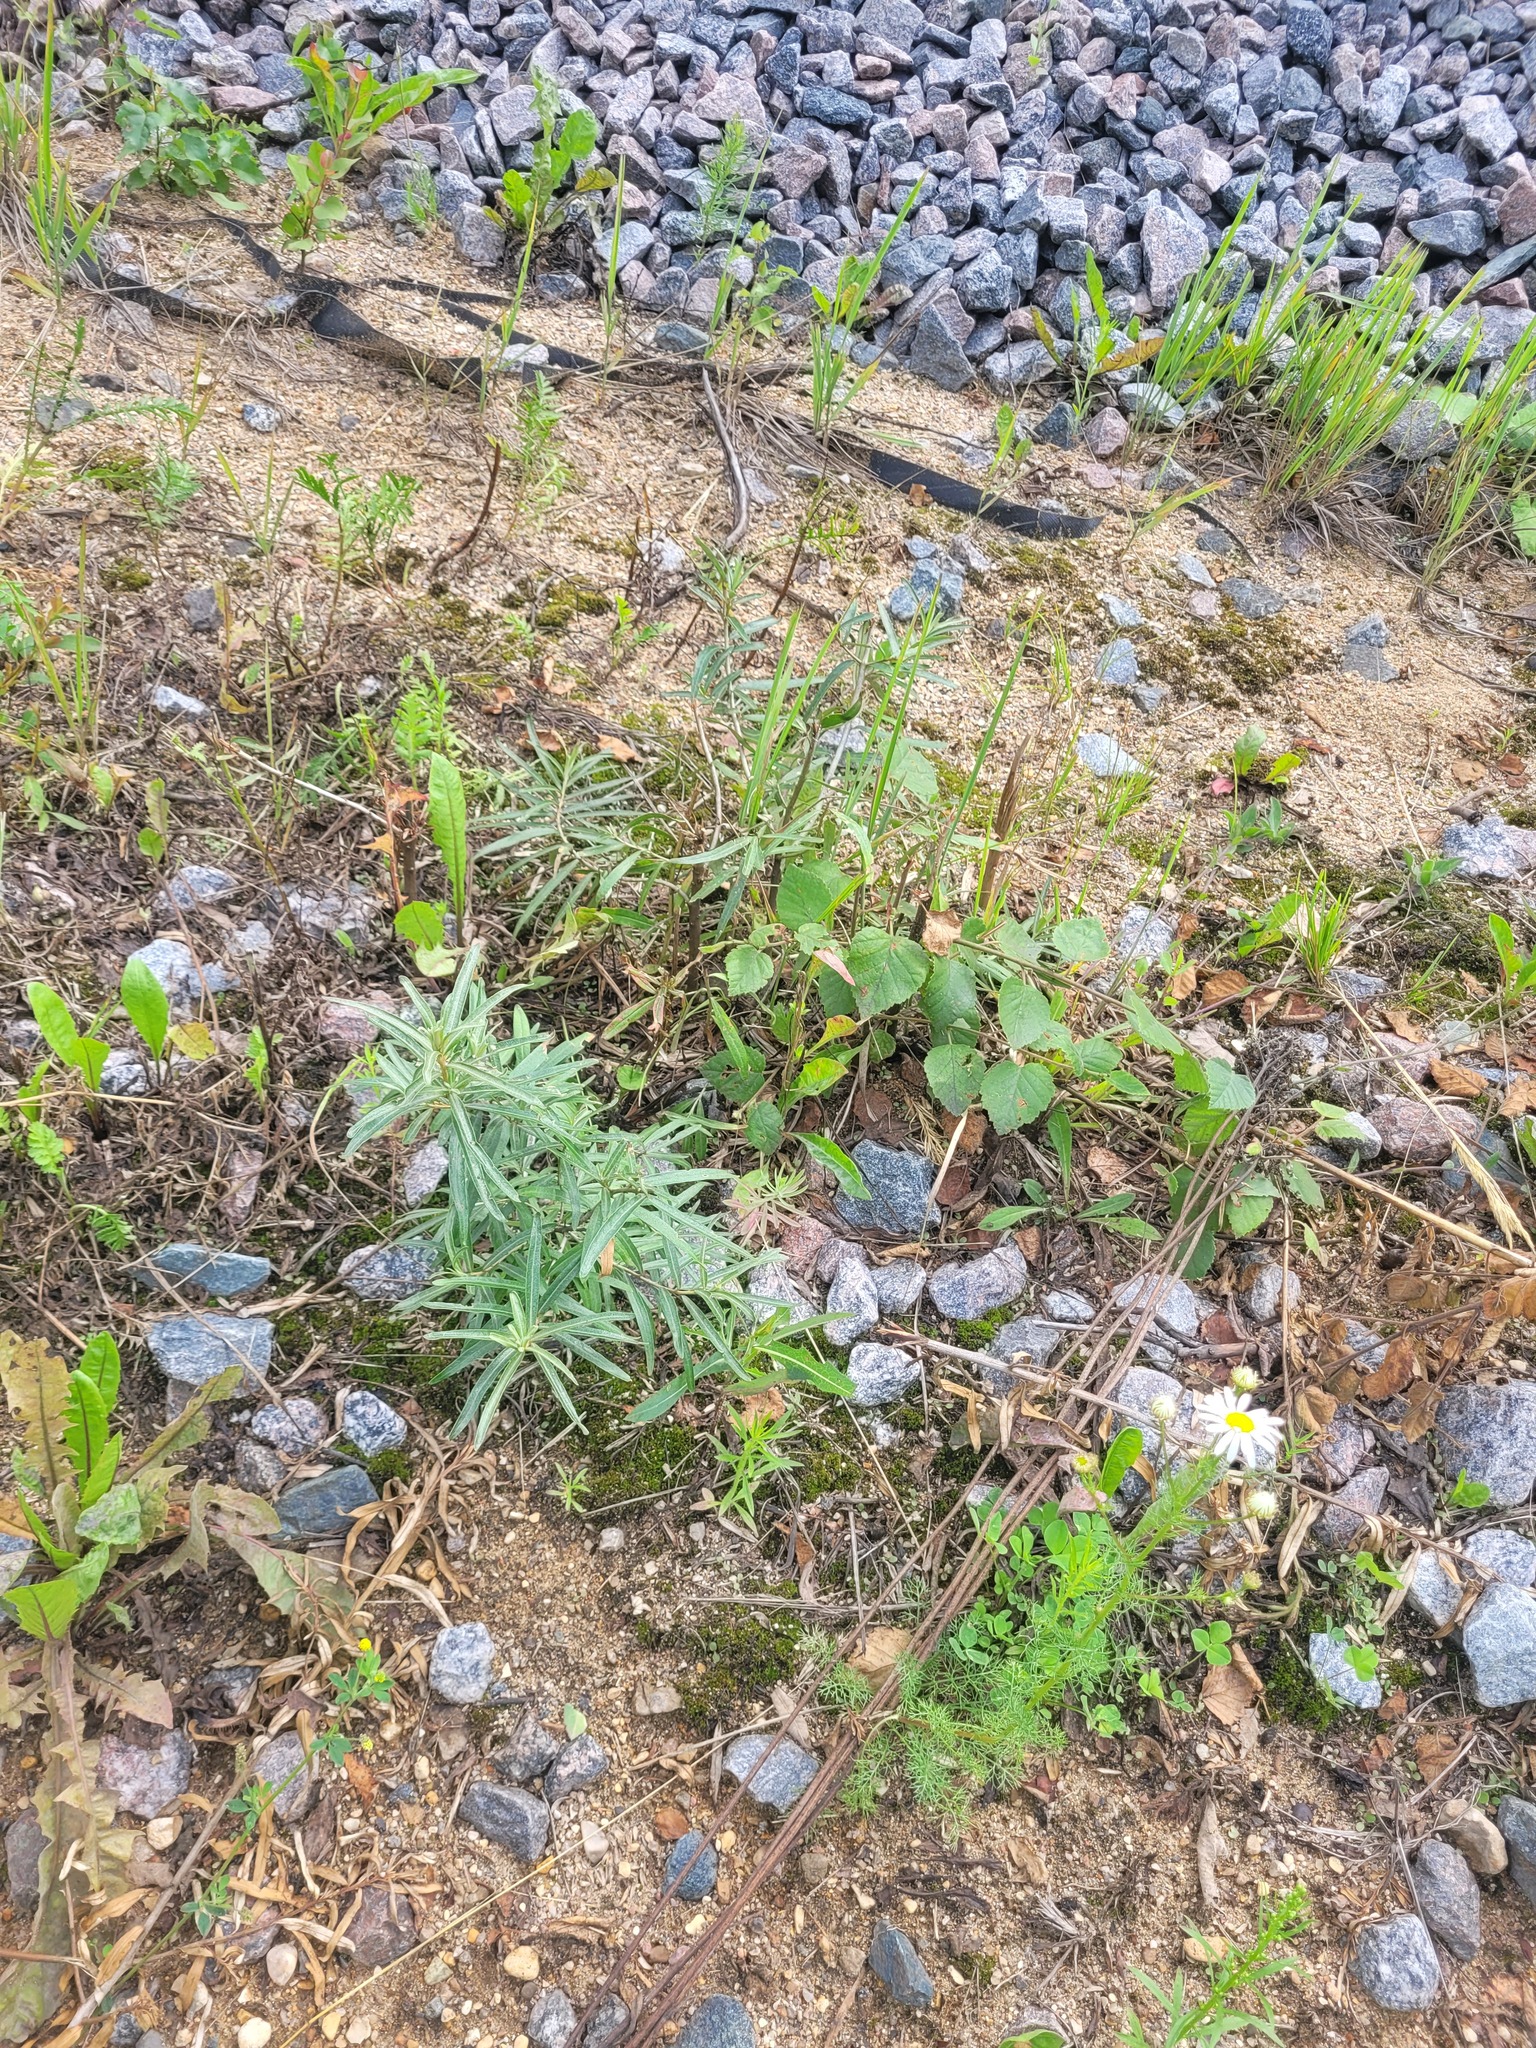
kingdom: Plantae
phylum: Tracheophyta
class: Magnoliopsida
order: Rosales
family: Elaeagnaceae
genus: Hippophae
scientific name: Hippophae rhamnoides
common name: Sea-buckthorn
